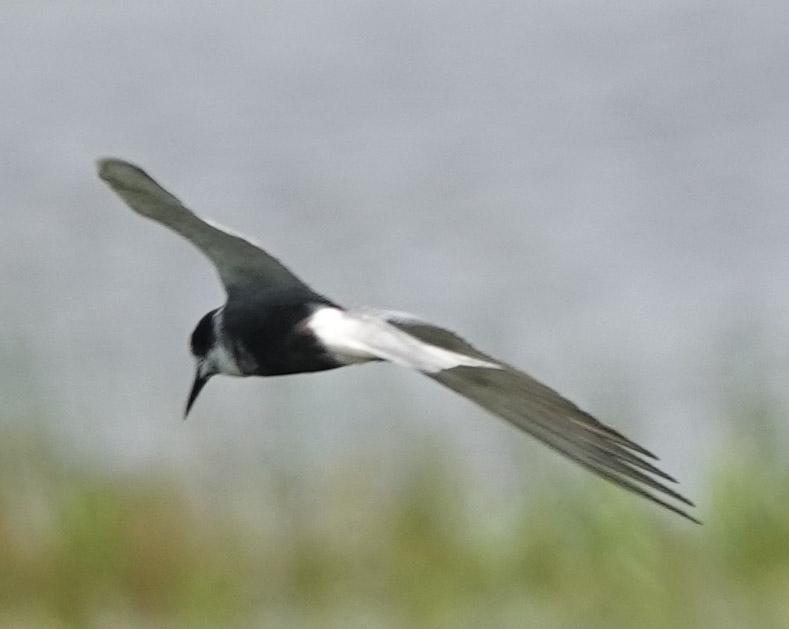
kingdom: Animalia
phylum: Chordata
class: Aves
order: Charadriiformes
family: Laridae
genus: Chlidonias
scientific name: Chlidonias niger
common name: Black tern
